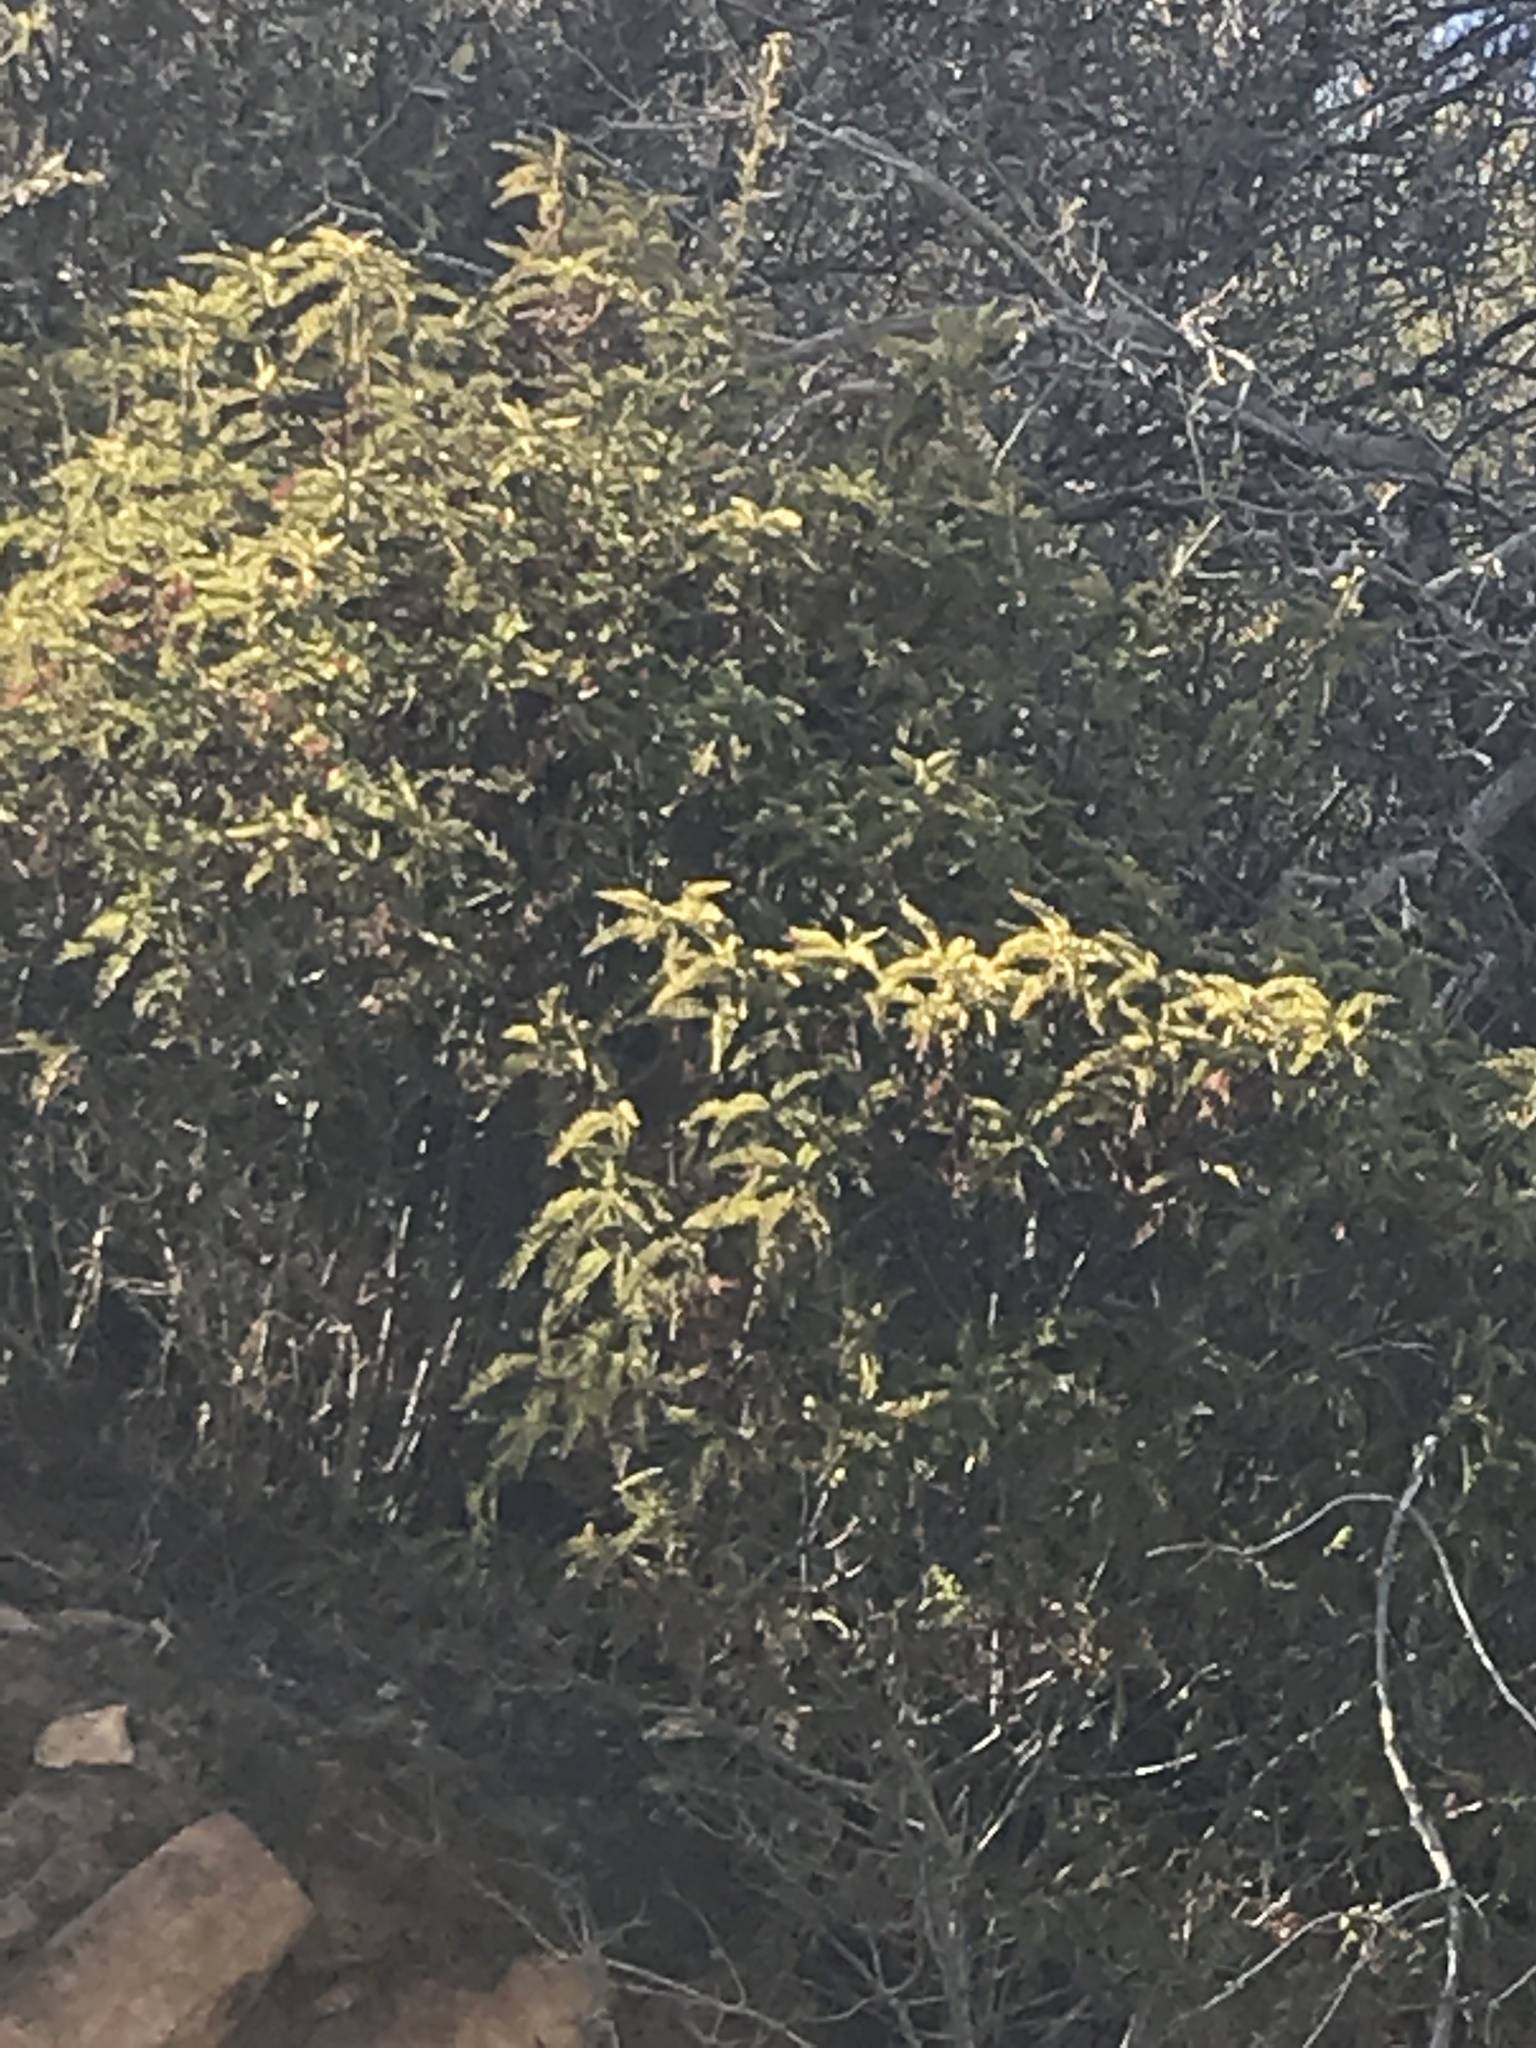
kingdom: Plantae
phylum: Tracheophyta
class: Magnoliopsida
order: Rosales
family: Rosaceae
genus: Chamaebatia
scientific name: Chamaebatia australis
